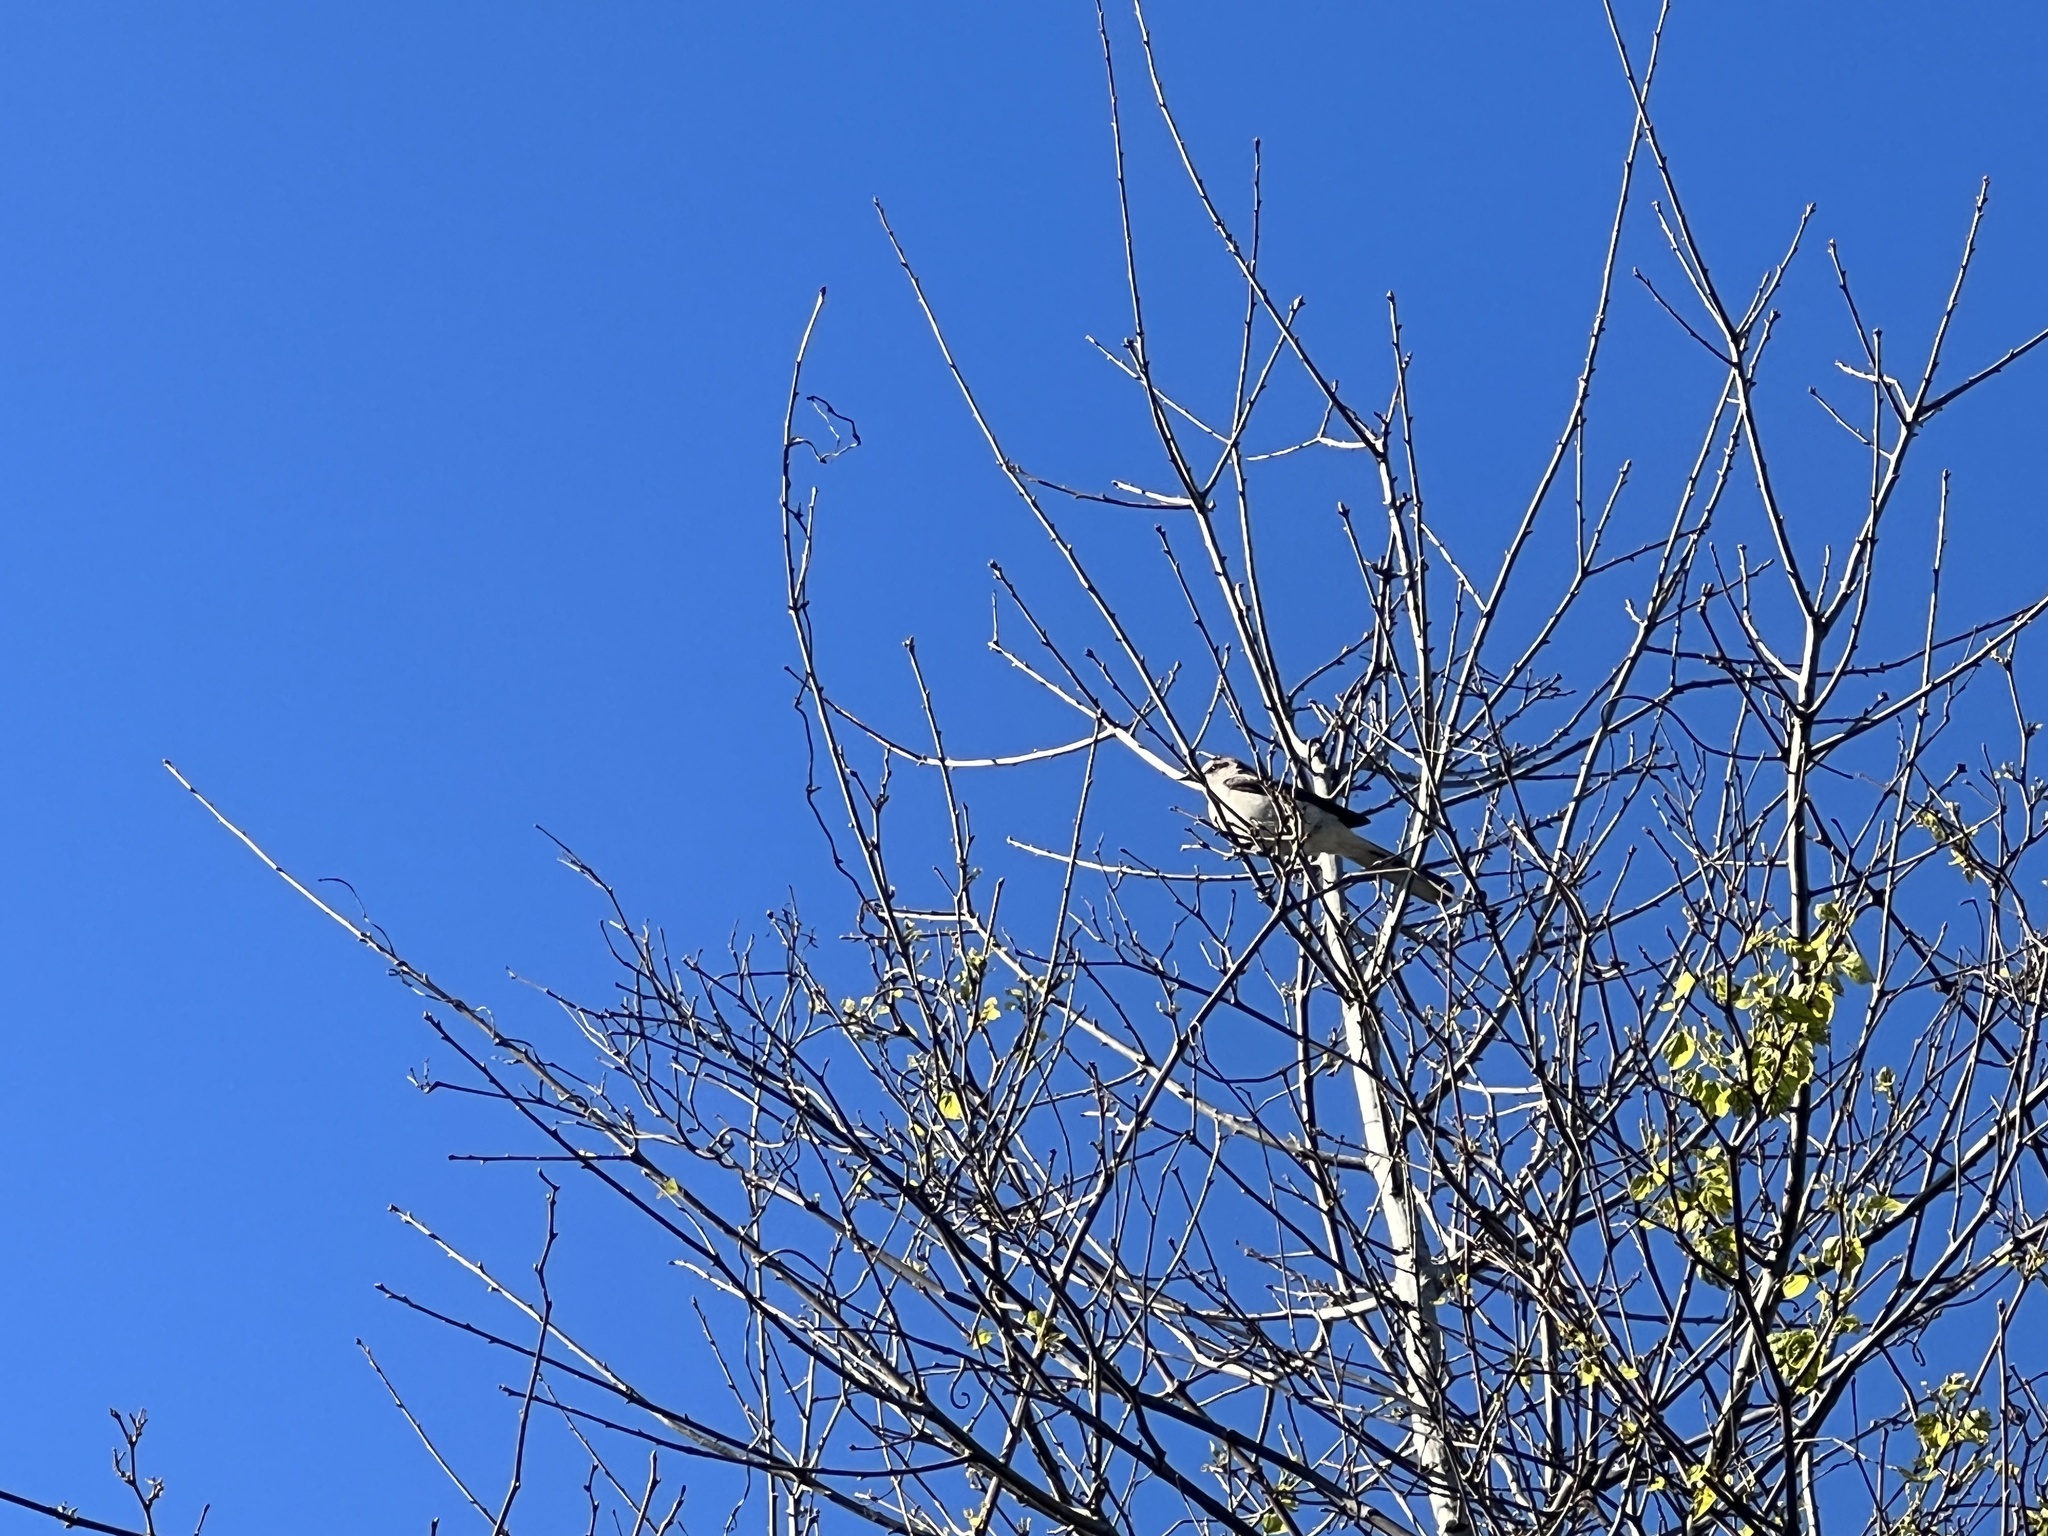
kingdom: Animalia
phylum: Chordata
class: Aves
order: Passeriformes
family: Mimidae
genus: Mimus
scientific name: Mimus polyglottos
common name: Northern mockingbird
